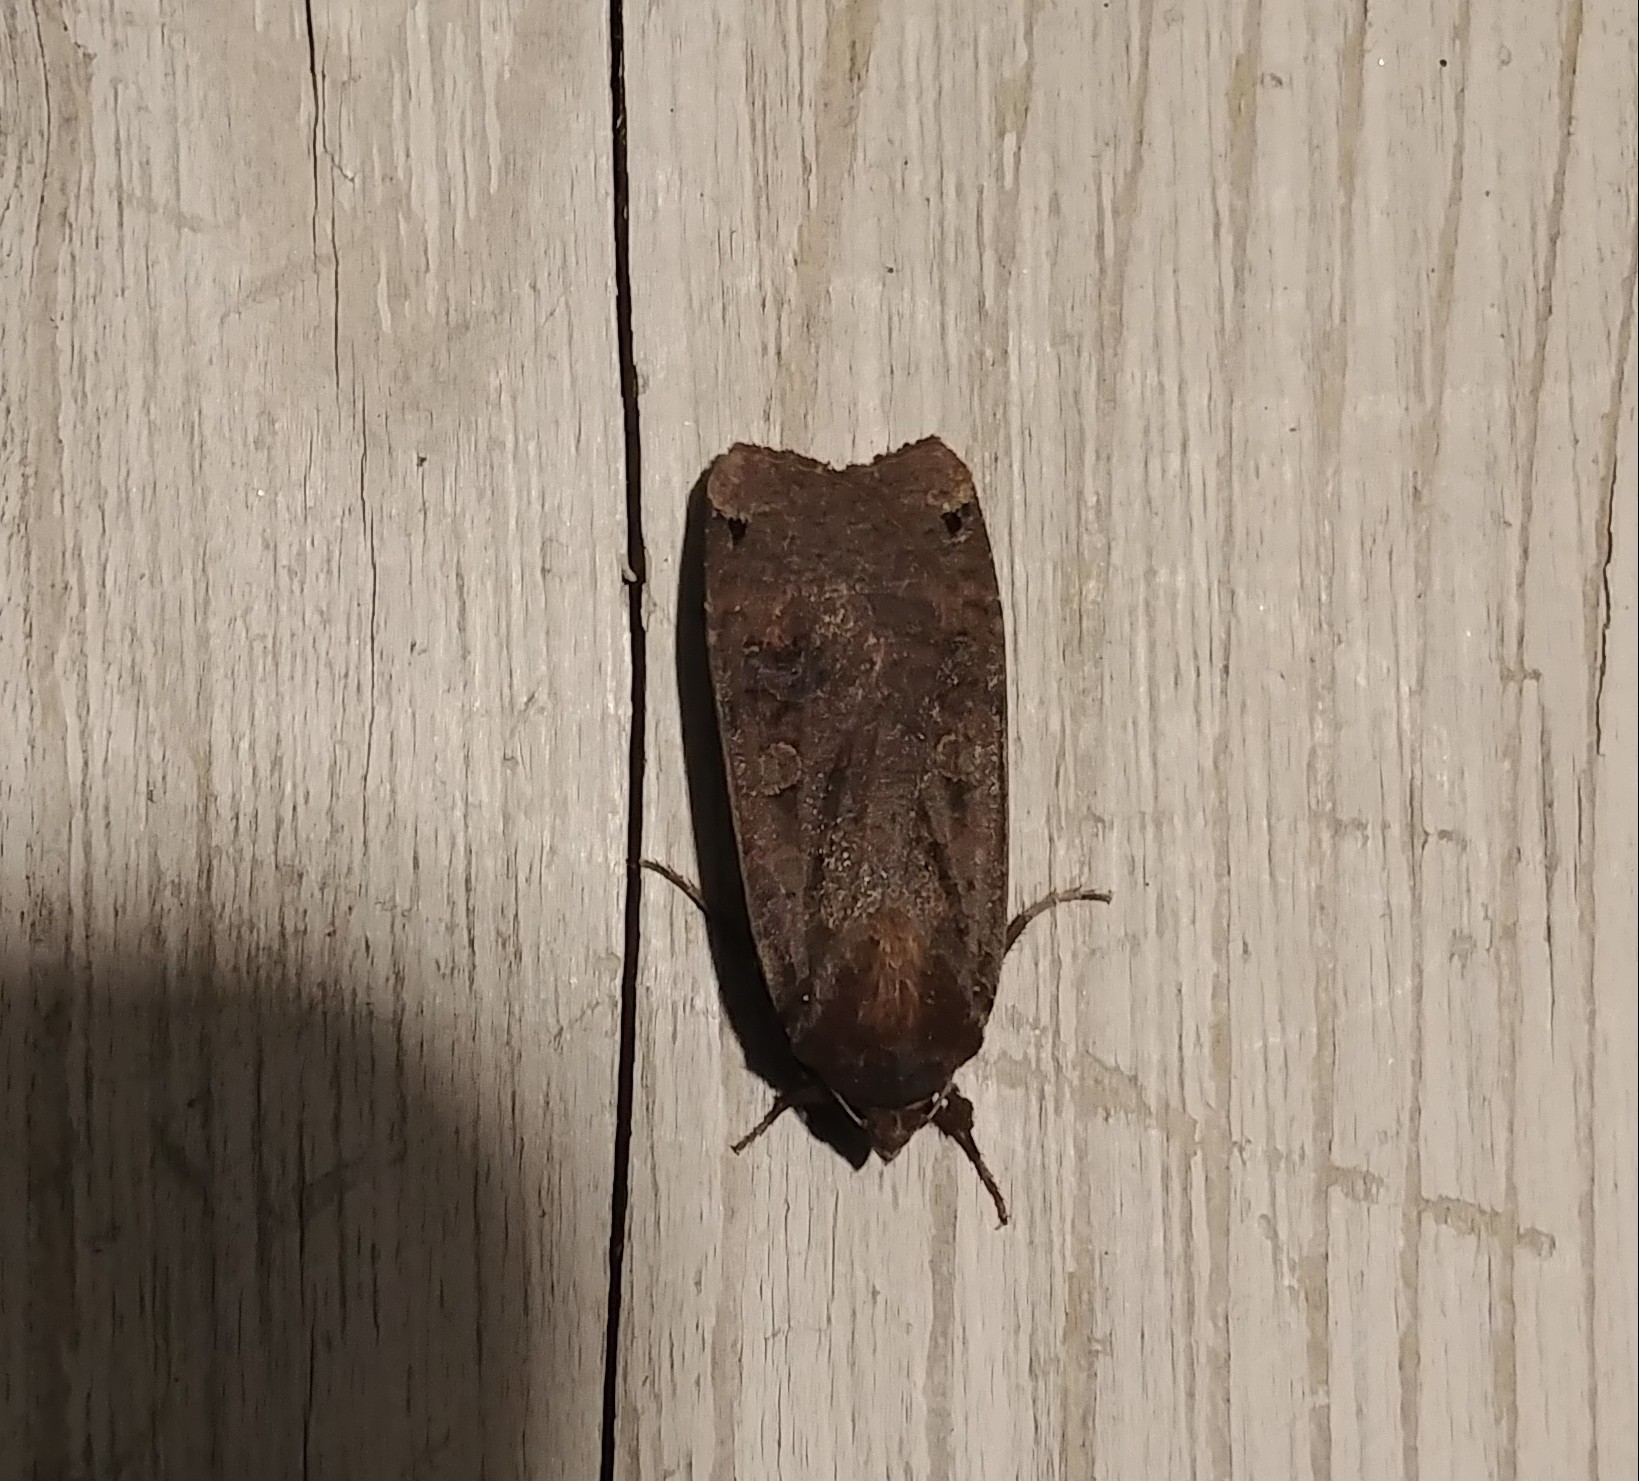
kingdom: Animalia
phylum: Arthropoda
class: Insecta
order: Lepidoptera
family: Noctuidae
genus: Noctua
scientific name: Noctua pronuba
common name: Large yellow underwing
